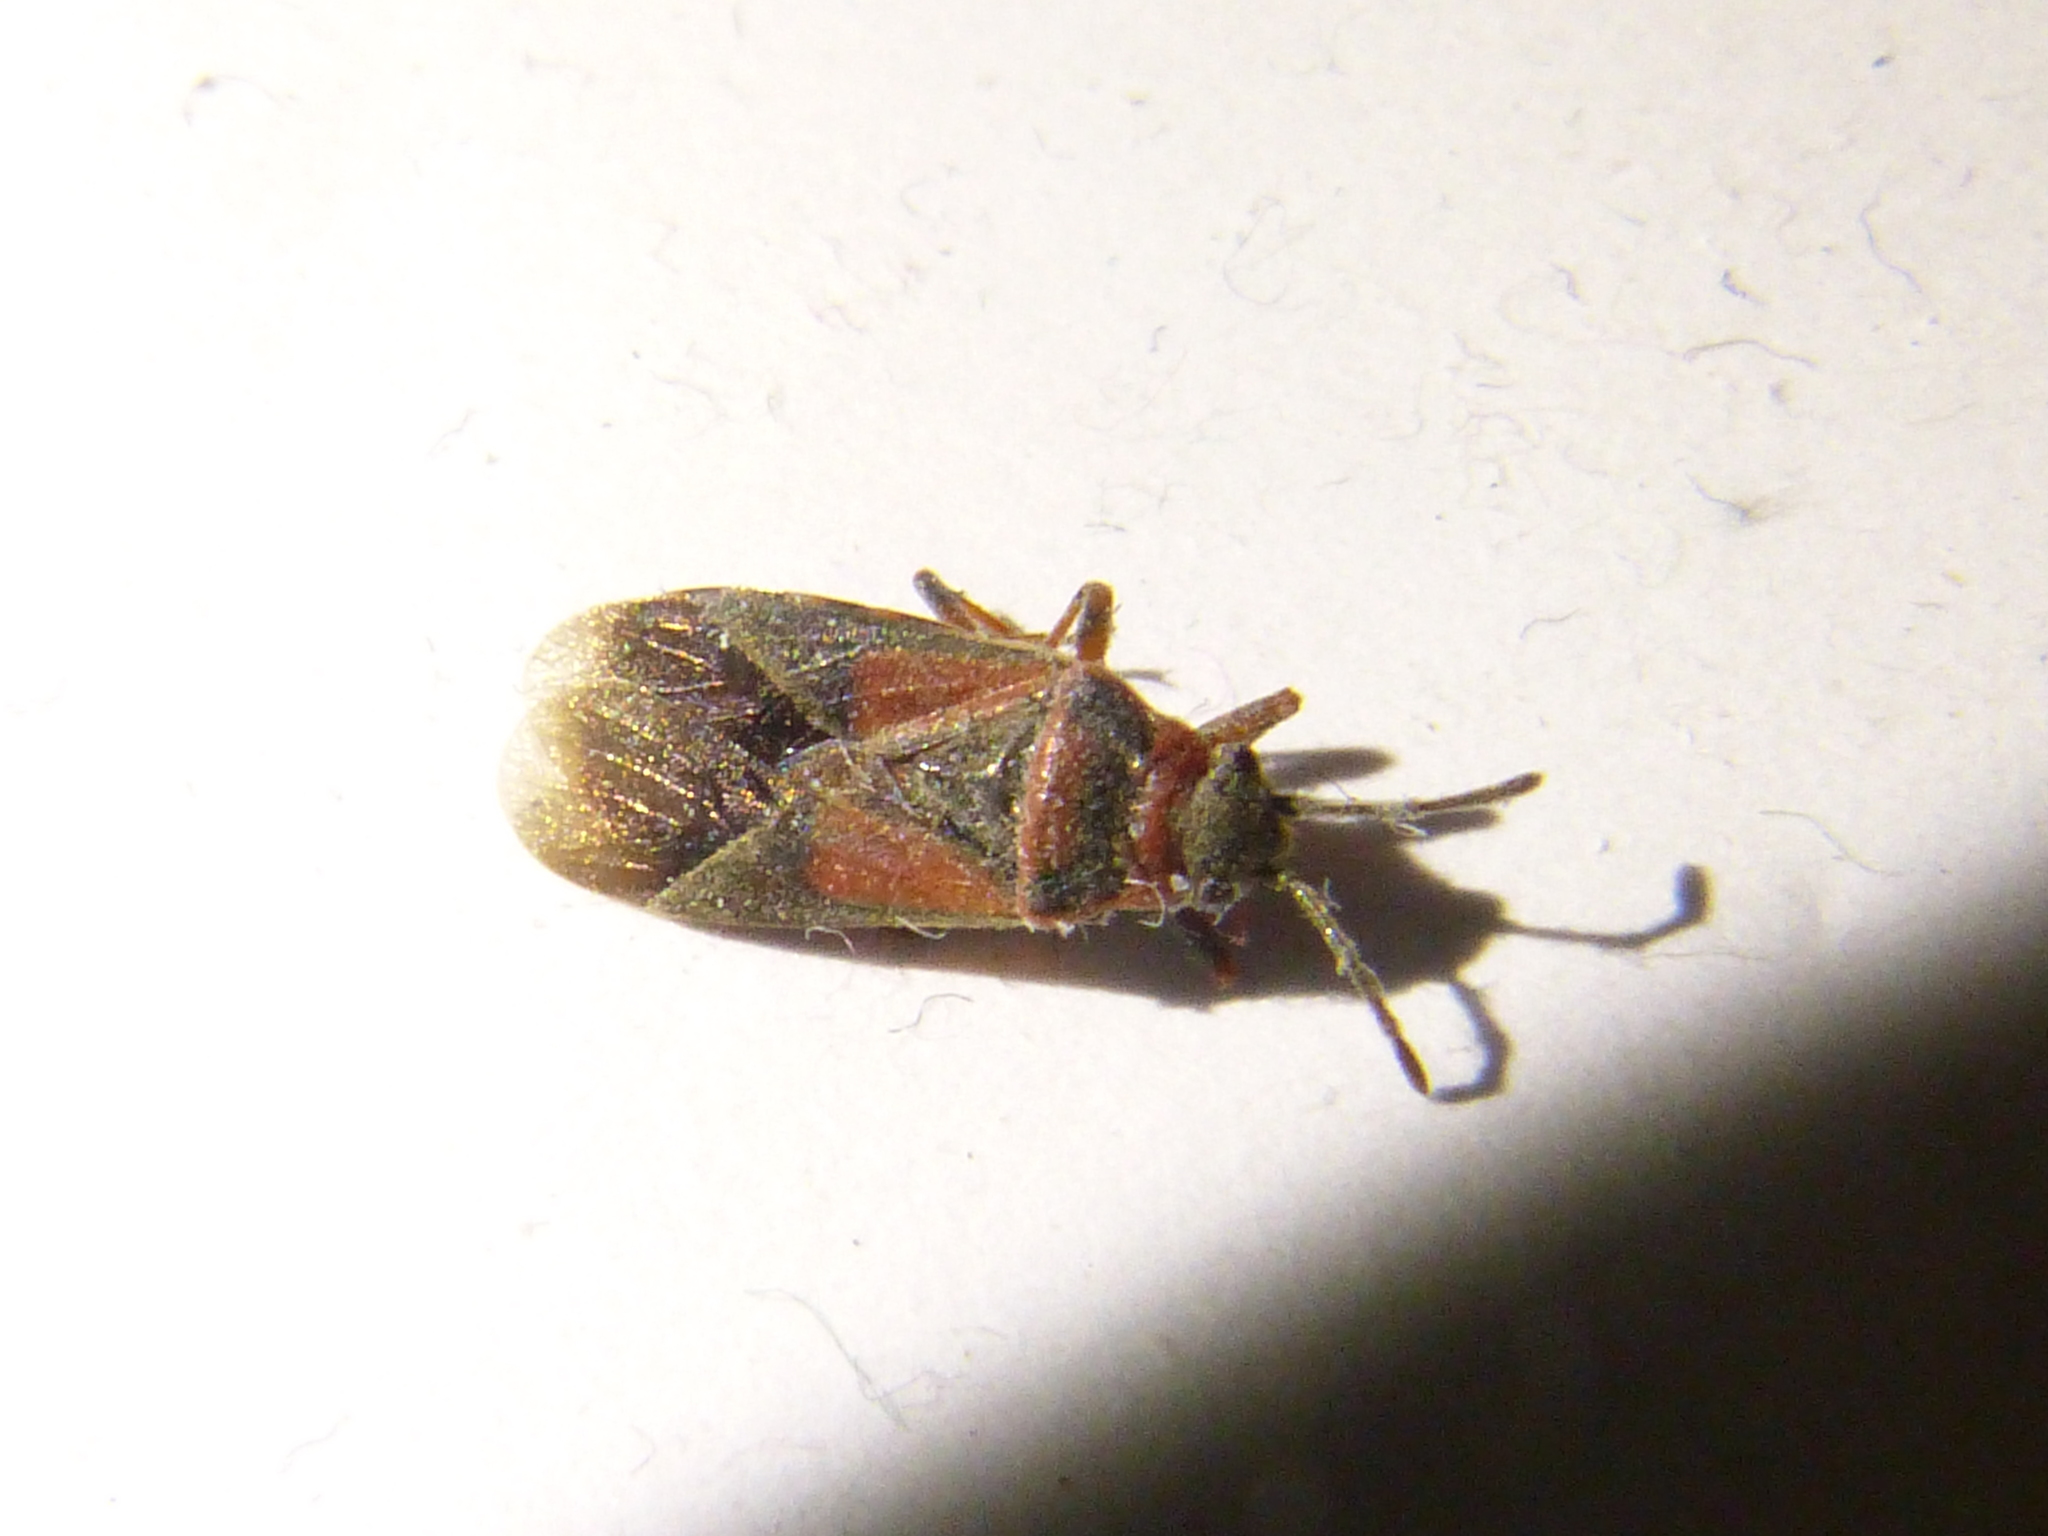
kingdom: Animalia
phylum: Arthropoda
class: Insecta
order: Hemiptera
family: Lygaeidae
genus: Arocatus
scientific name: Arocatus melanocephalus
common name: Lygaeid bug
